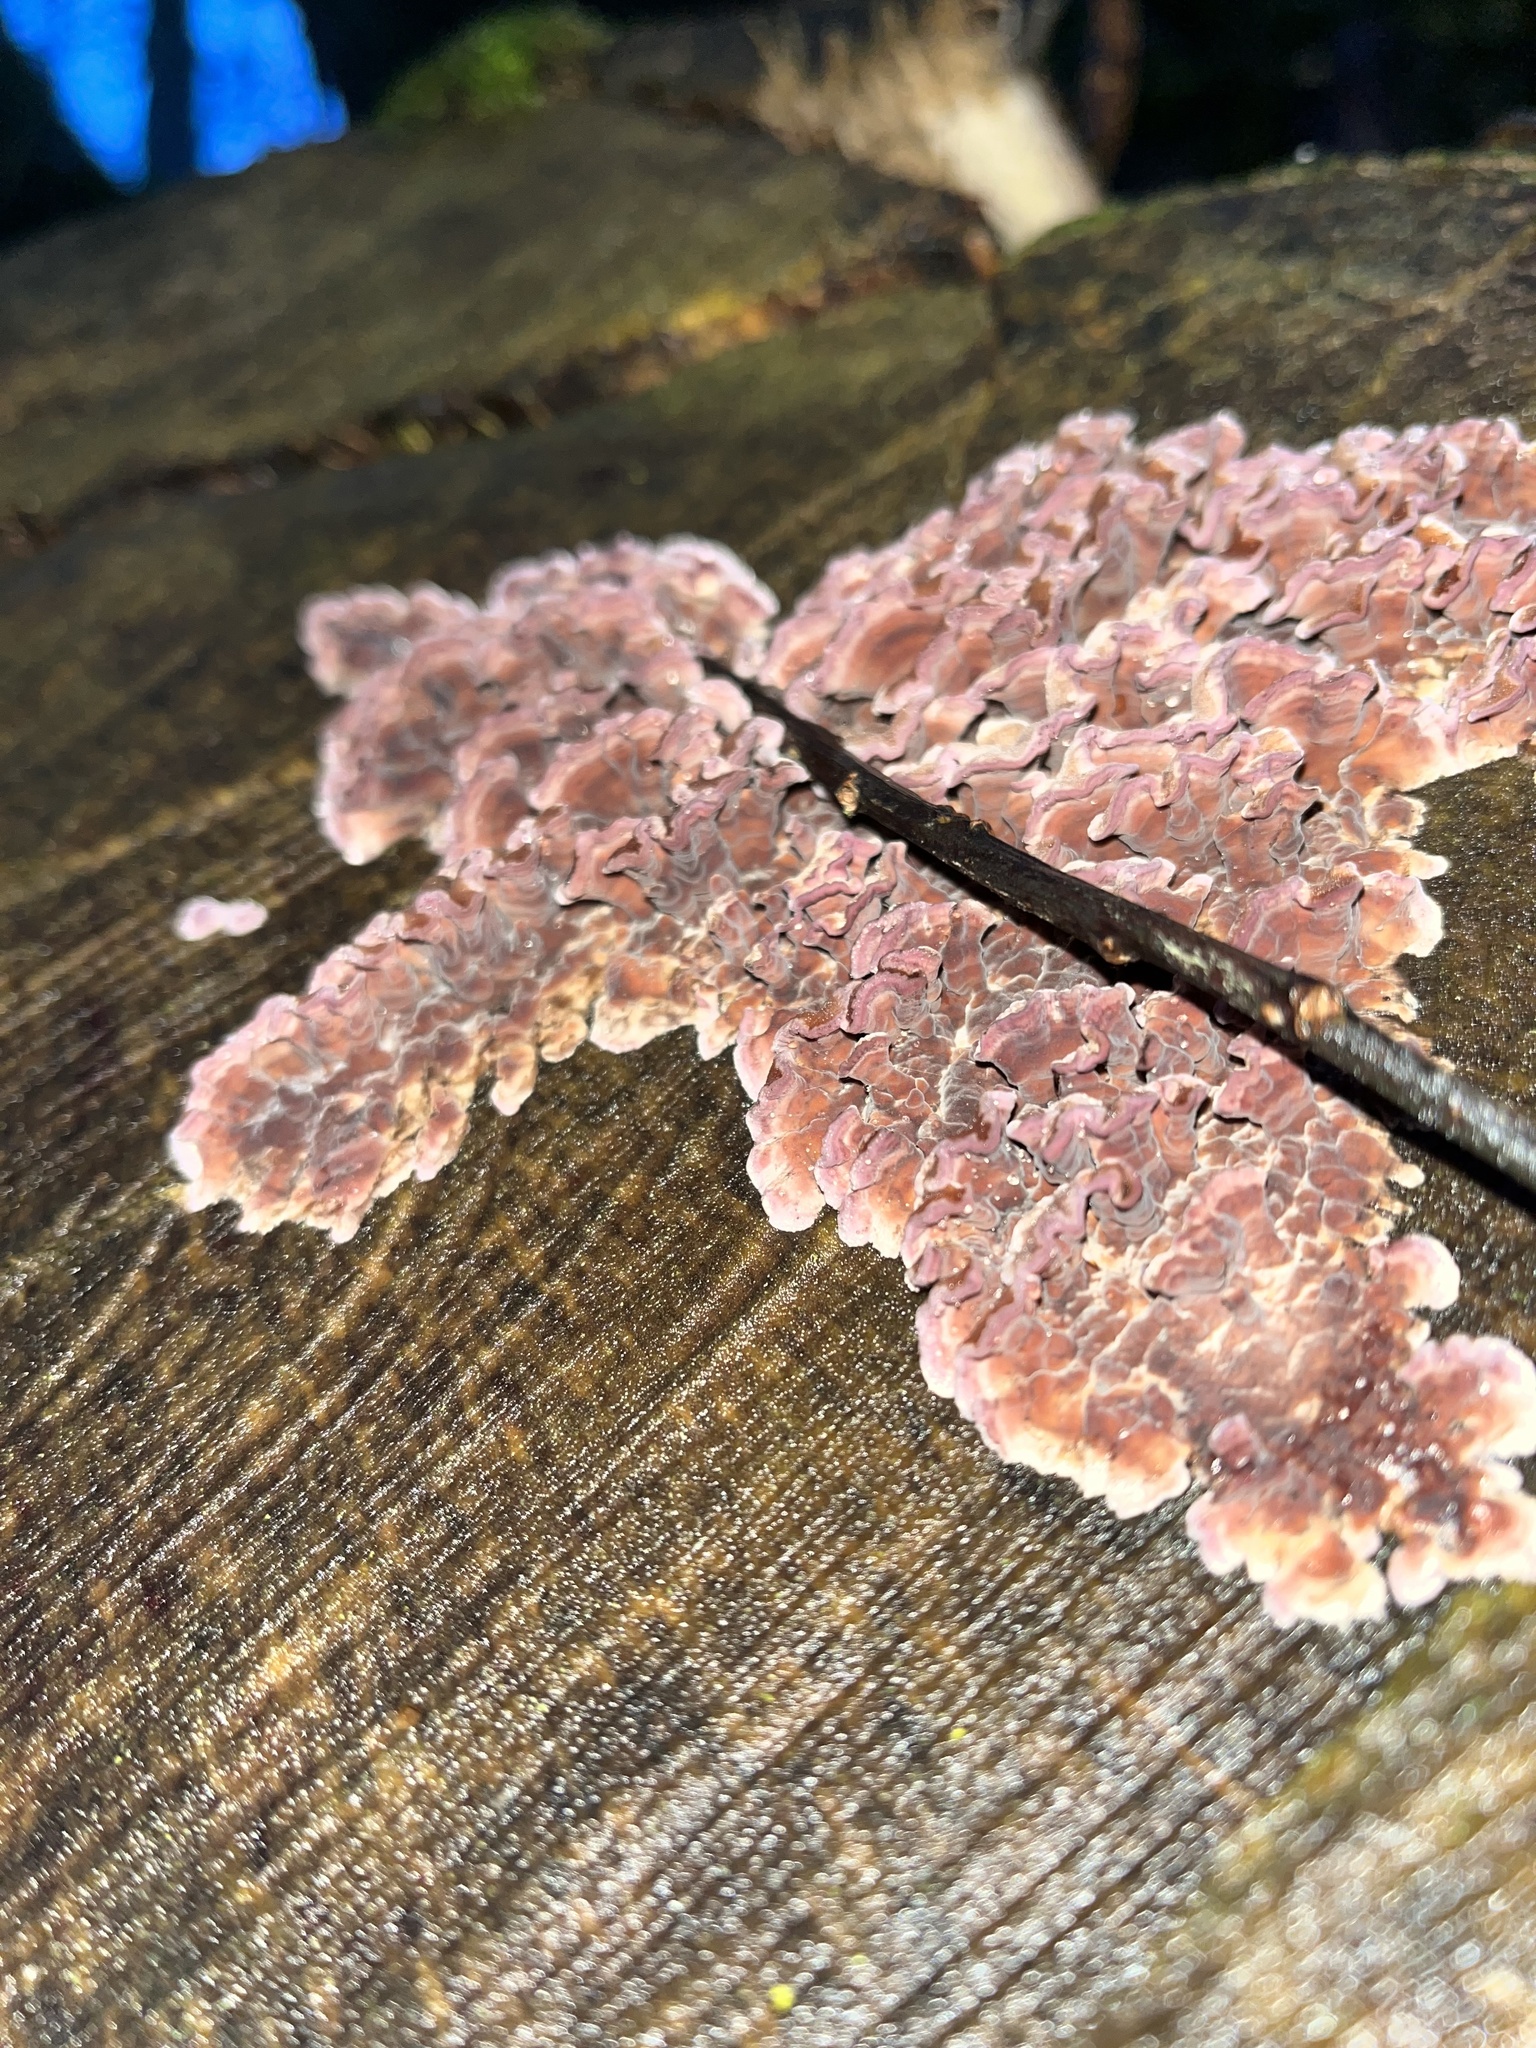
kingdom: Fungi
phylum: Basidiomycota
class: Agaricomycetes
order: Agaricales
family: Cyphellaceae
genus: Chondrostereum
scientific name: Chondrostereum purpureum
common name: Silver leaf disease
